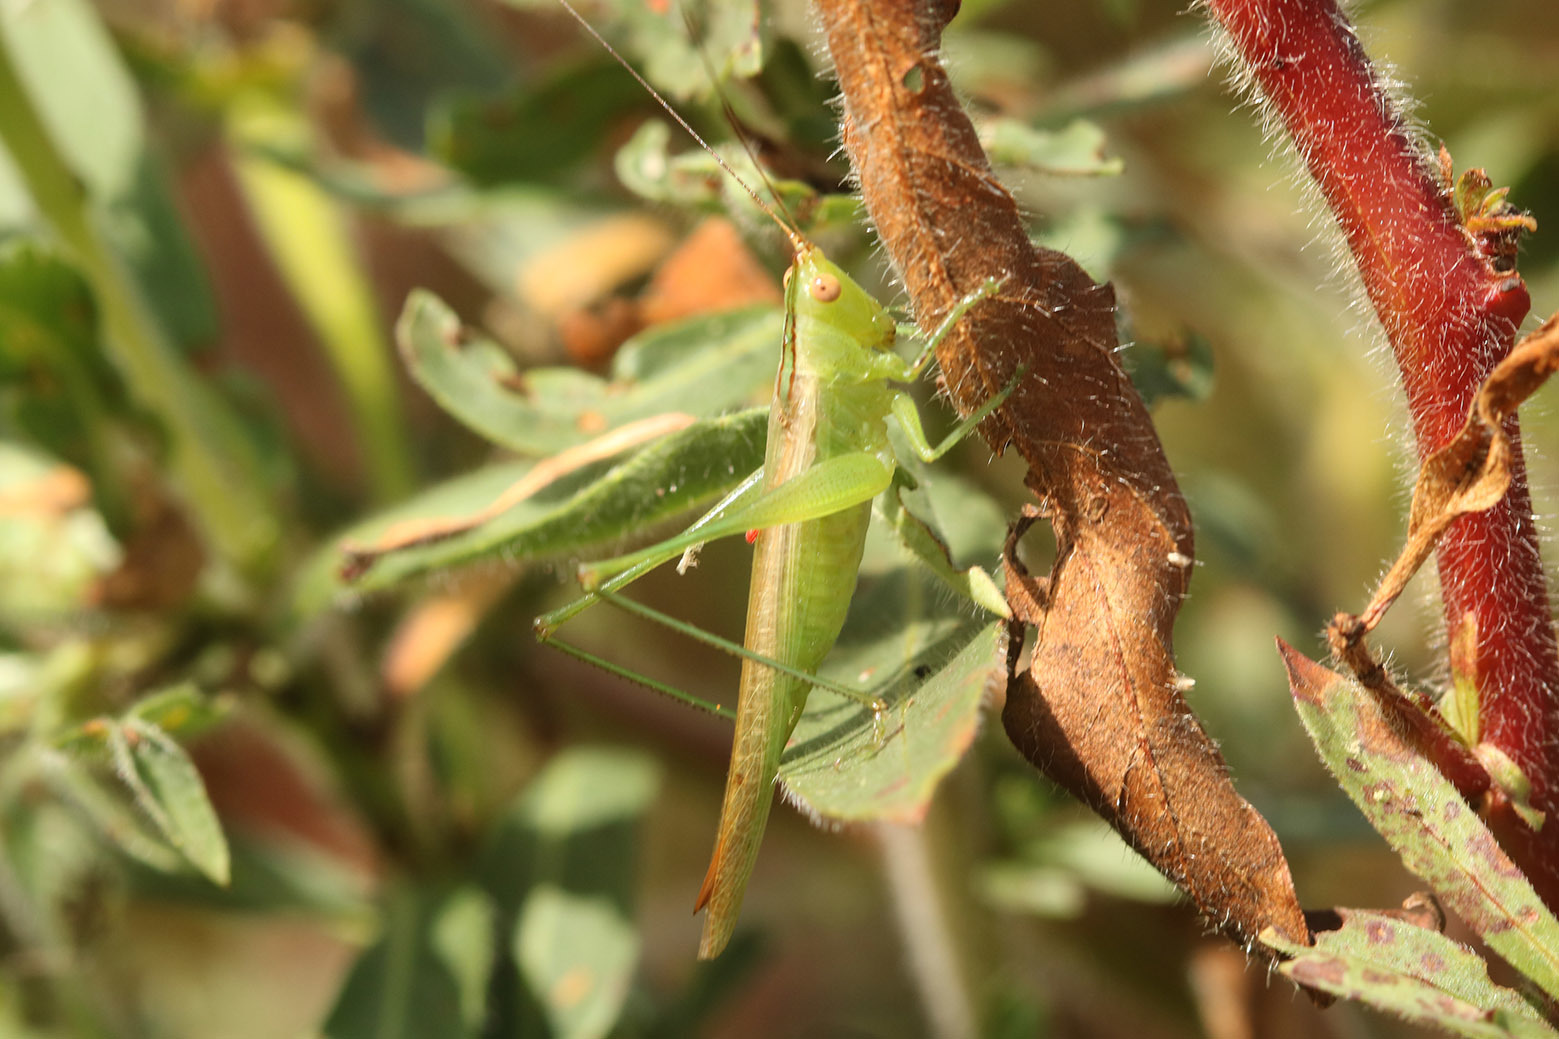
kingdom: Animalia
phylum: Arthropoda
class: Insecta
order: Orthoptera
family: Tettigoniidae
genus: Conocephalus
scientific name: Conocephalus longipes
